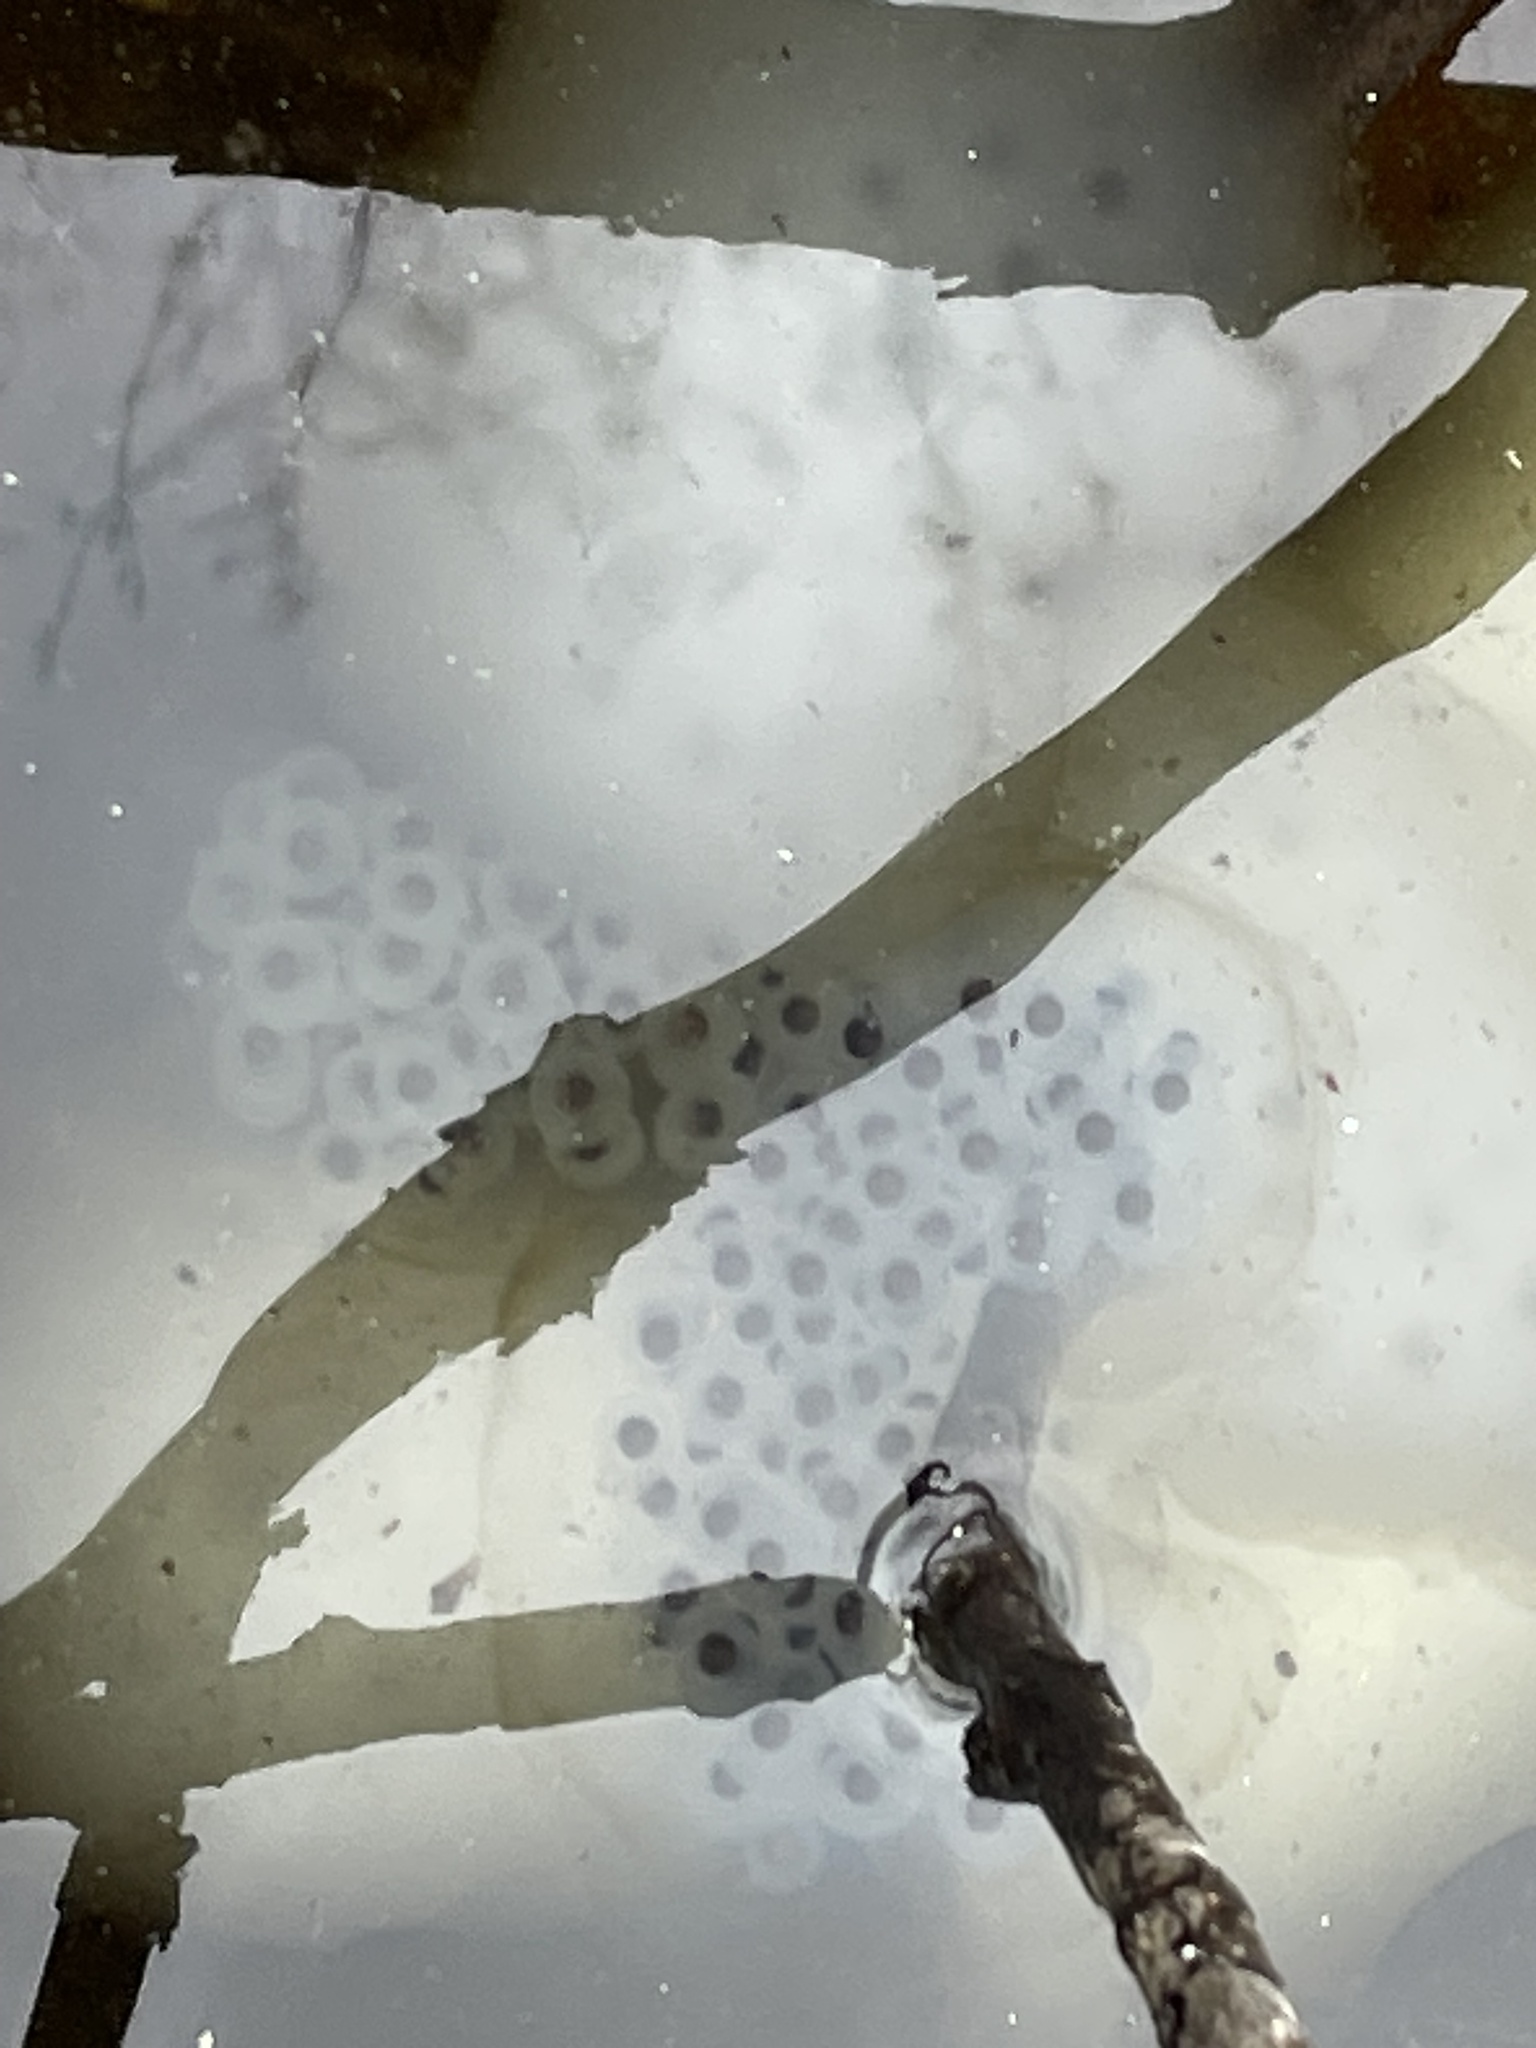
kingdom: Animalia
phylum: Chordata
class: Amphibia
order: Caudata
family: Ambystomatidae
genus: Ambystoma
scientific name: Ambystoma maculatum
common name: Spotted salamander
